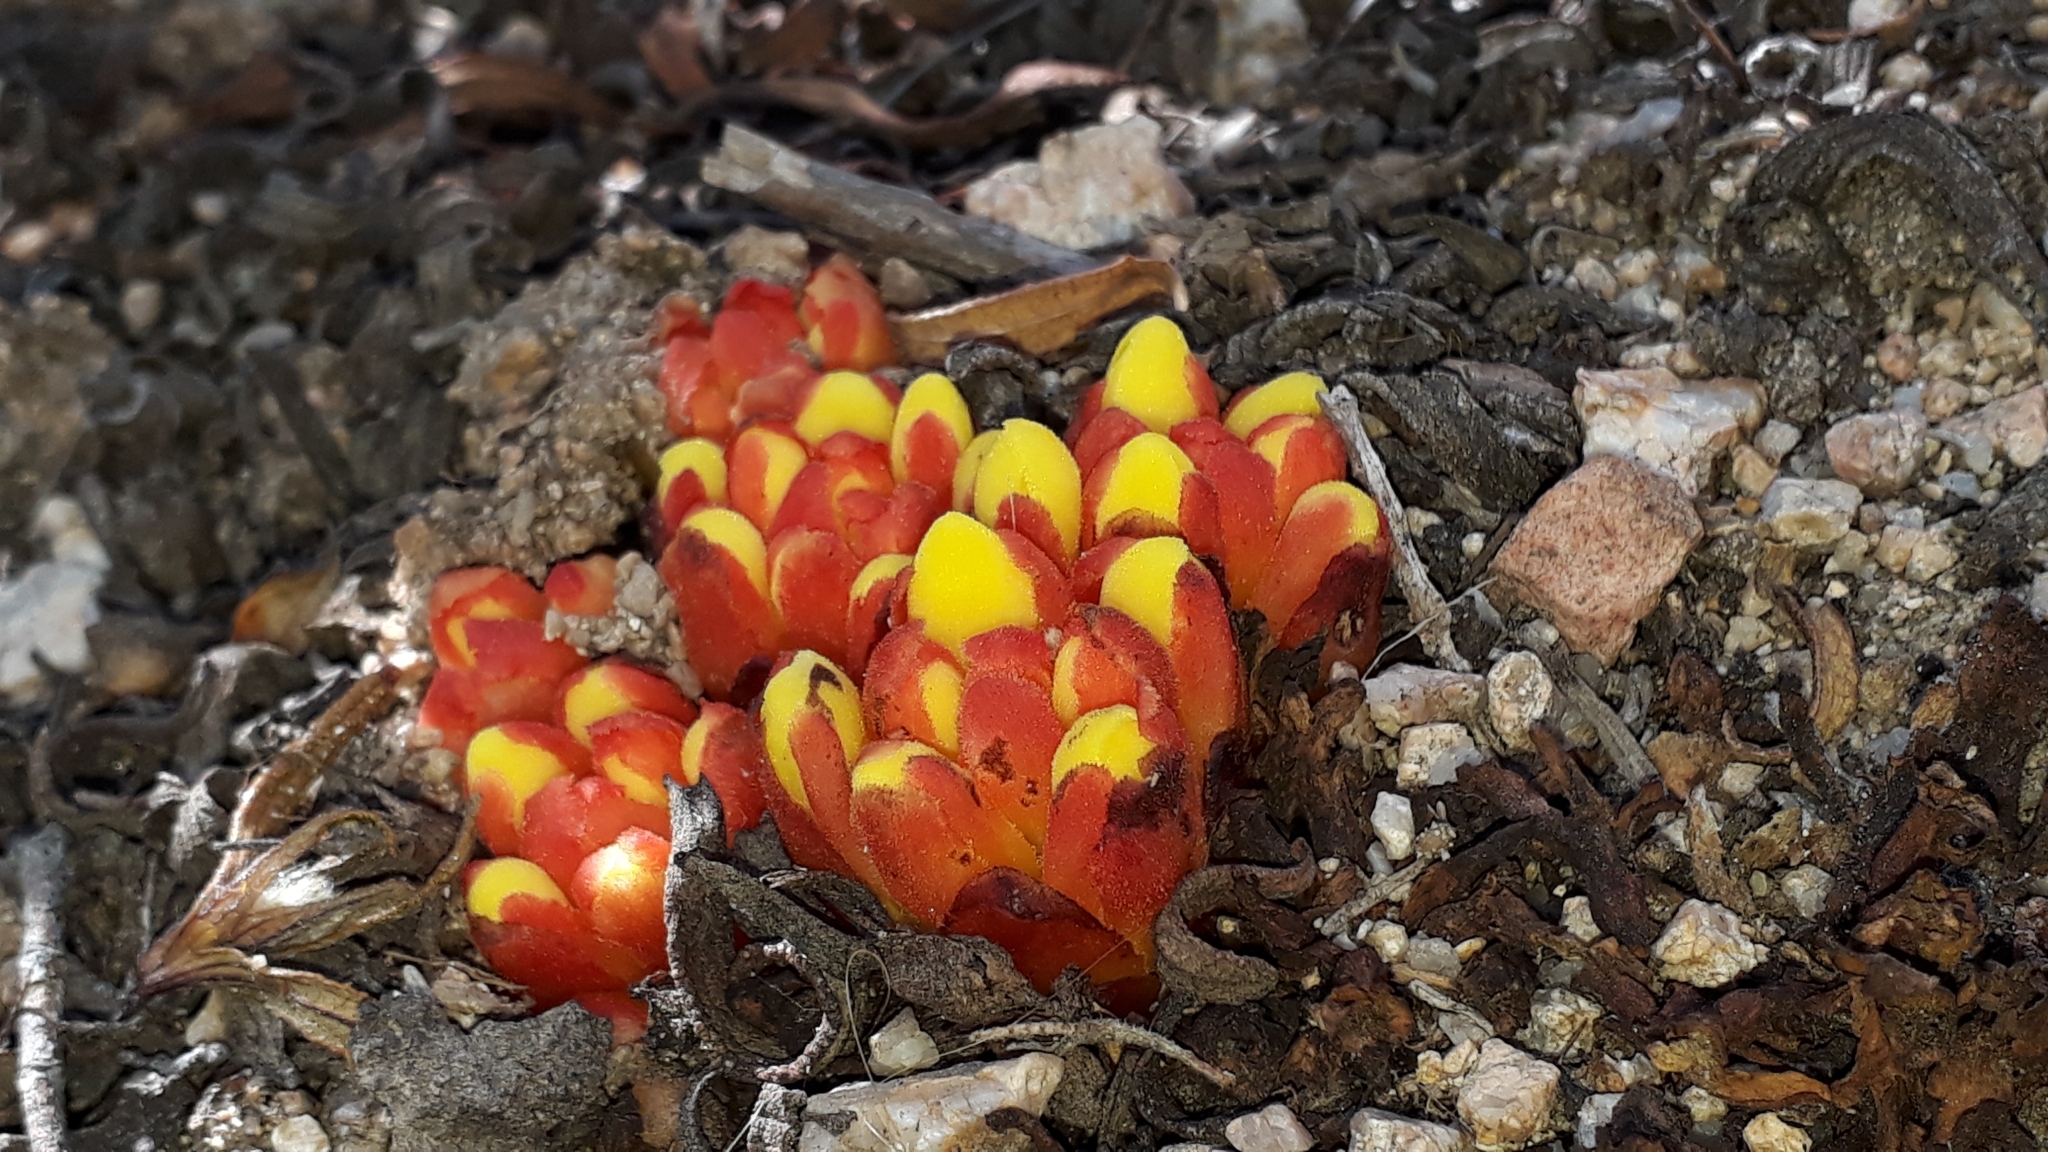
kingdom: Plantae
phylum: Tracheophyta
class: Magnoliopsida
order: Malvales
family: Cytinaceae
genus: Cytinus
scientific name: Cytinus hypocistis
